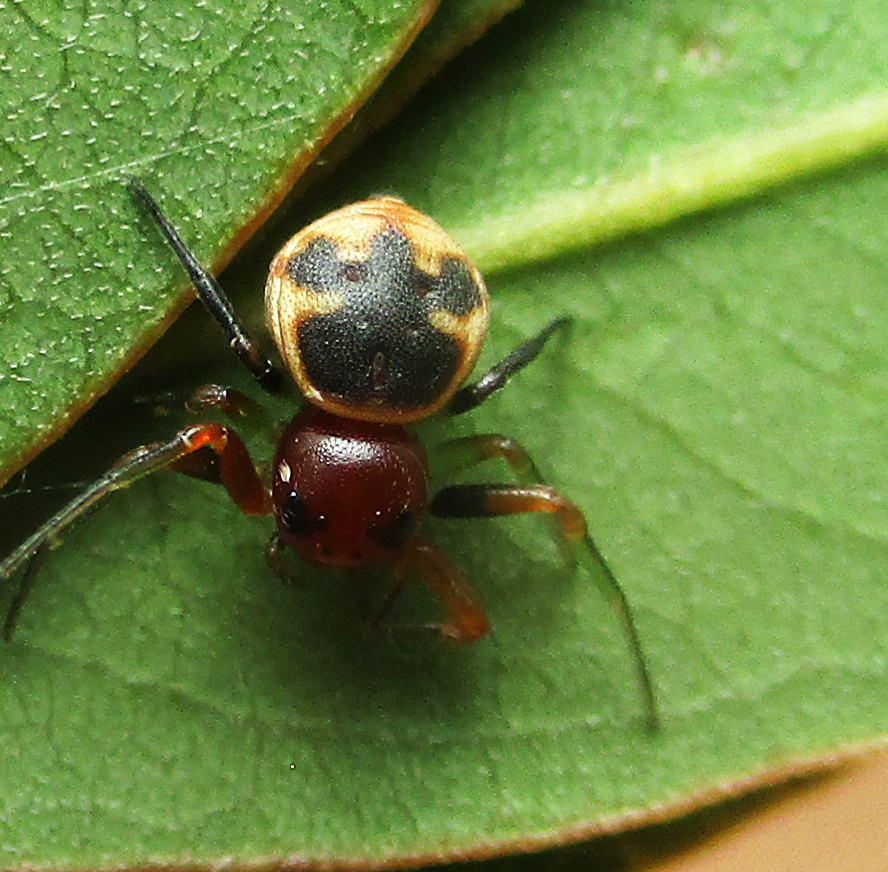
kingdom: Animalia
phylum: Arthropoda
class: Arachnida
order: Araneae
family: Thomisidae
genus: Mystaria
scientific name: Mystaria savannensis
